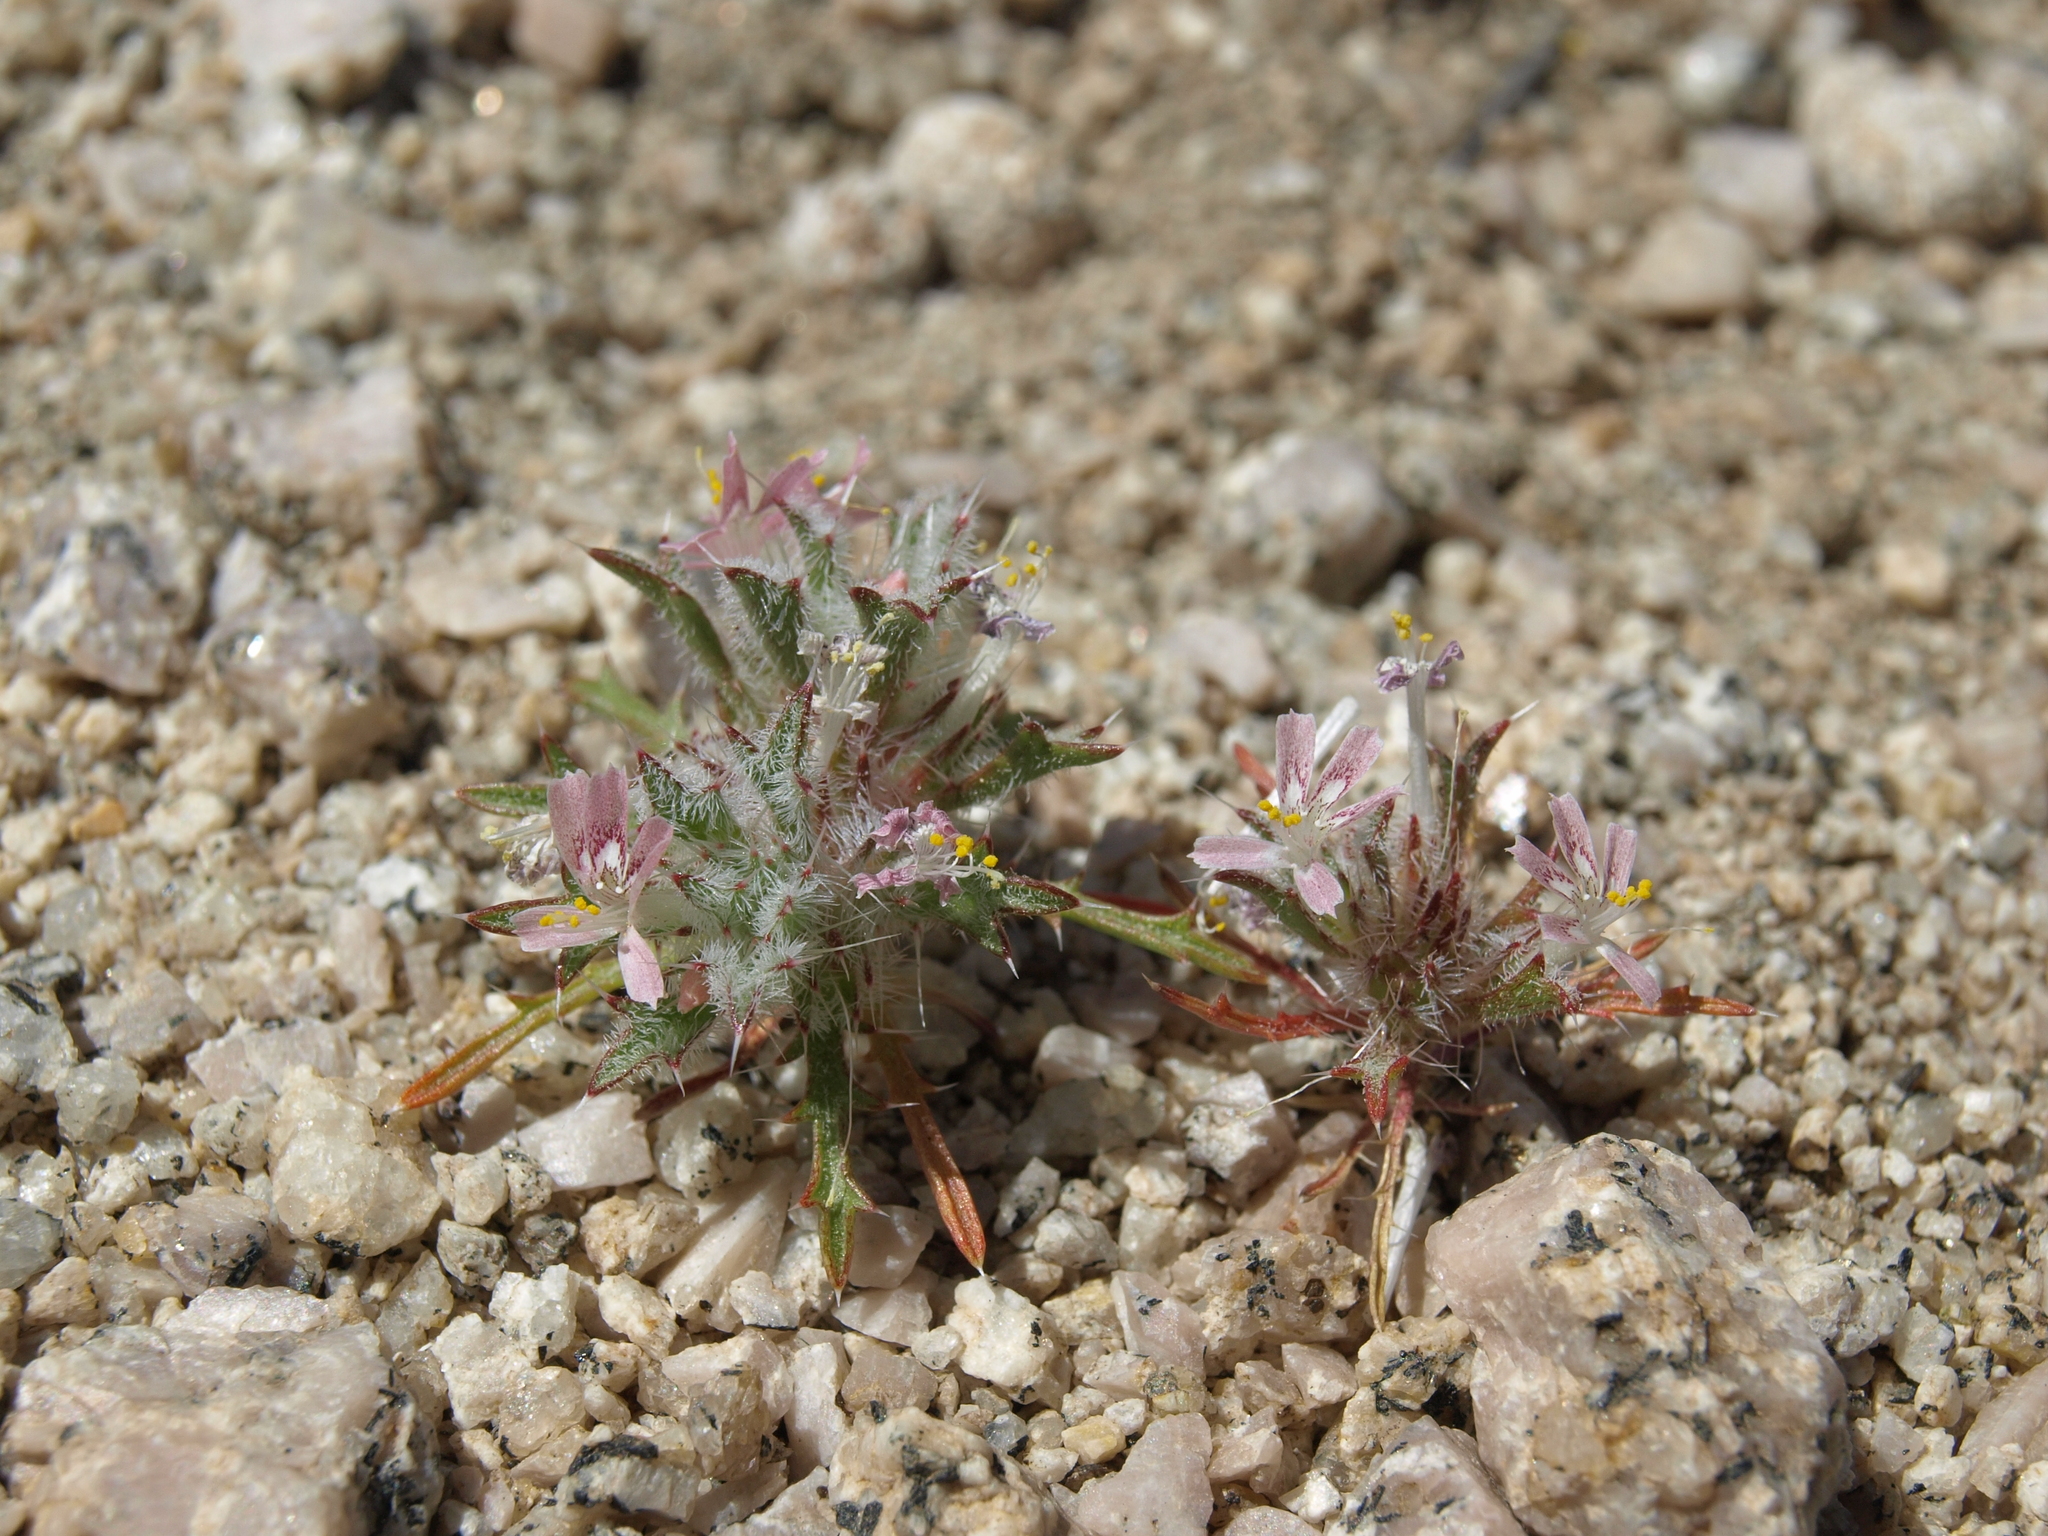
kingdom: Plantae
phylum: Tracheophyta
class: Magnoliopsida
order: Ericales
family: Polemoniaceae
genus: Loeseliastrum
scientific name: Loeseliastrum matthewsii
